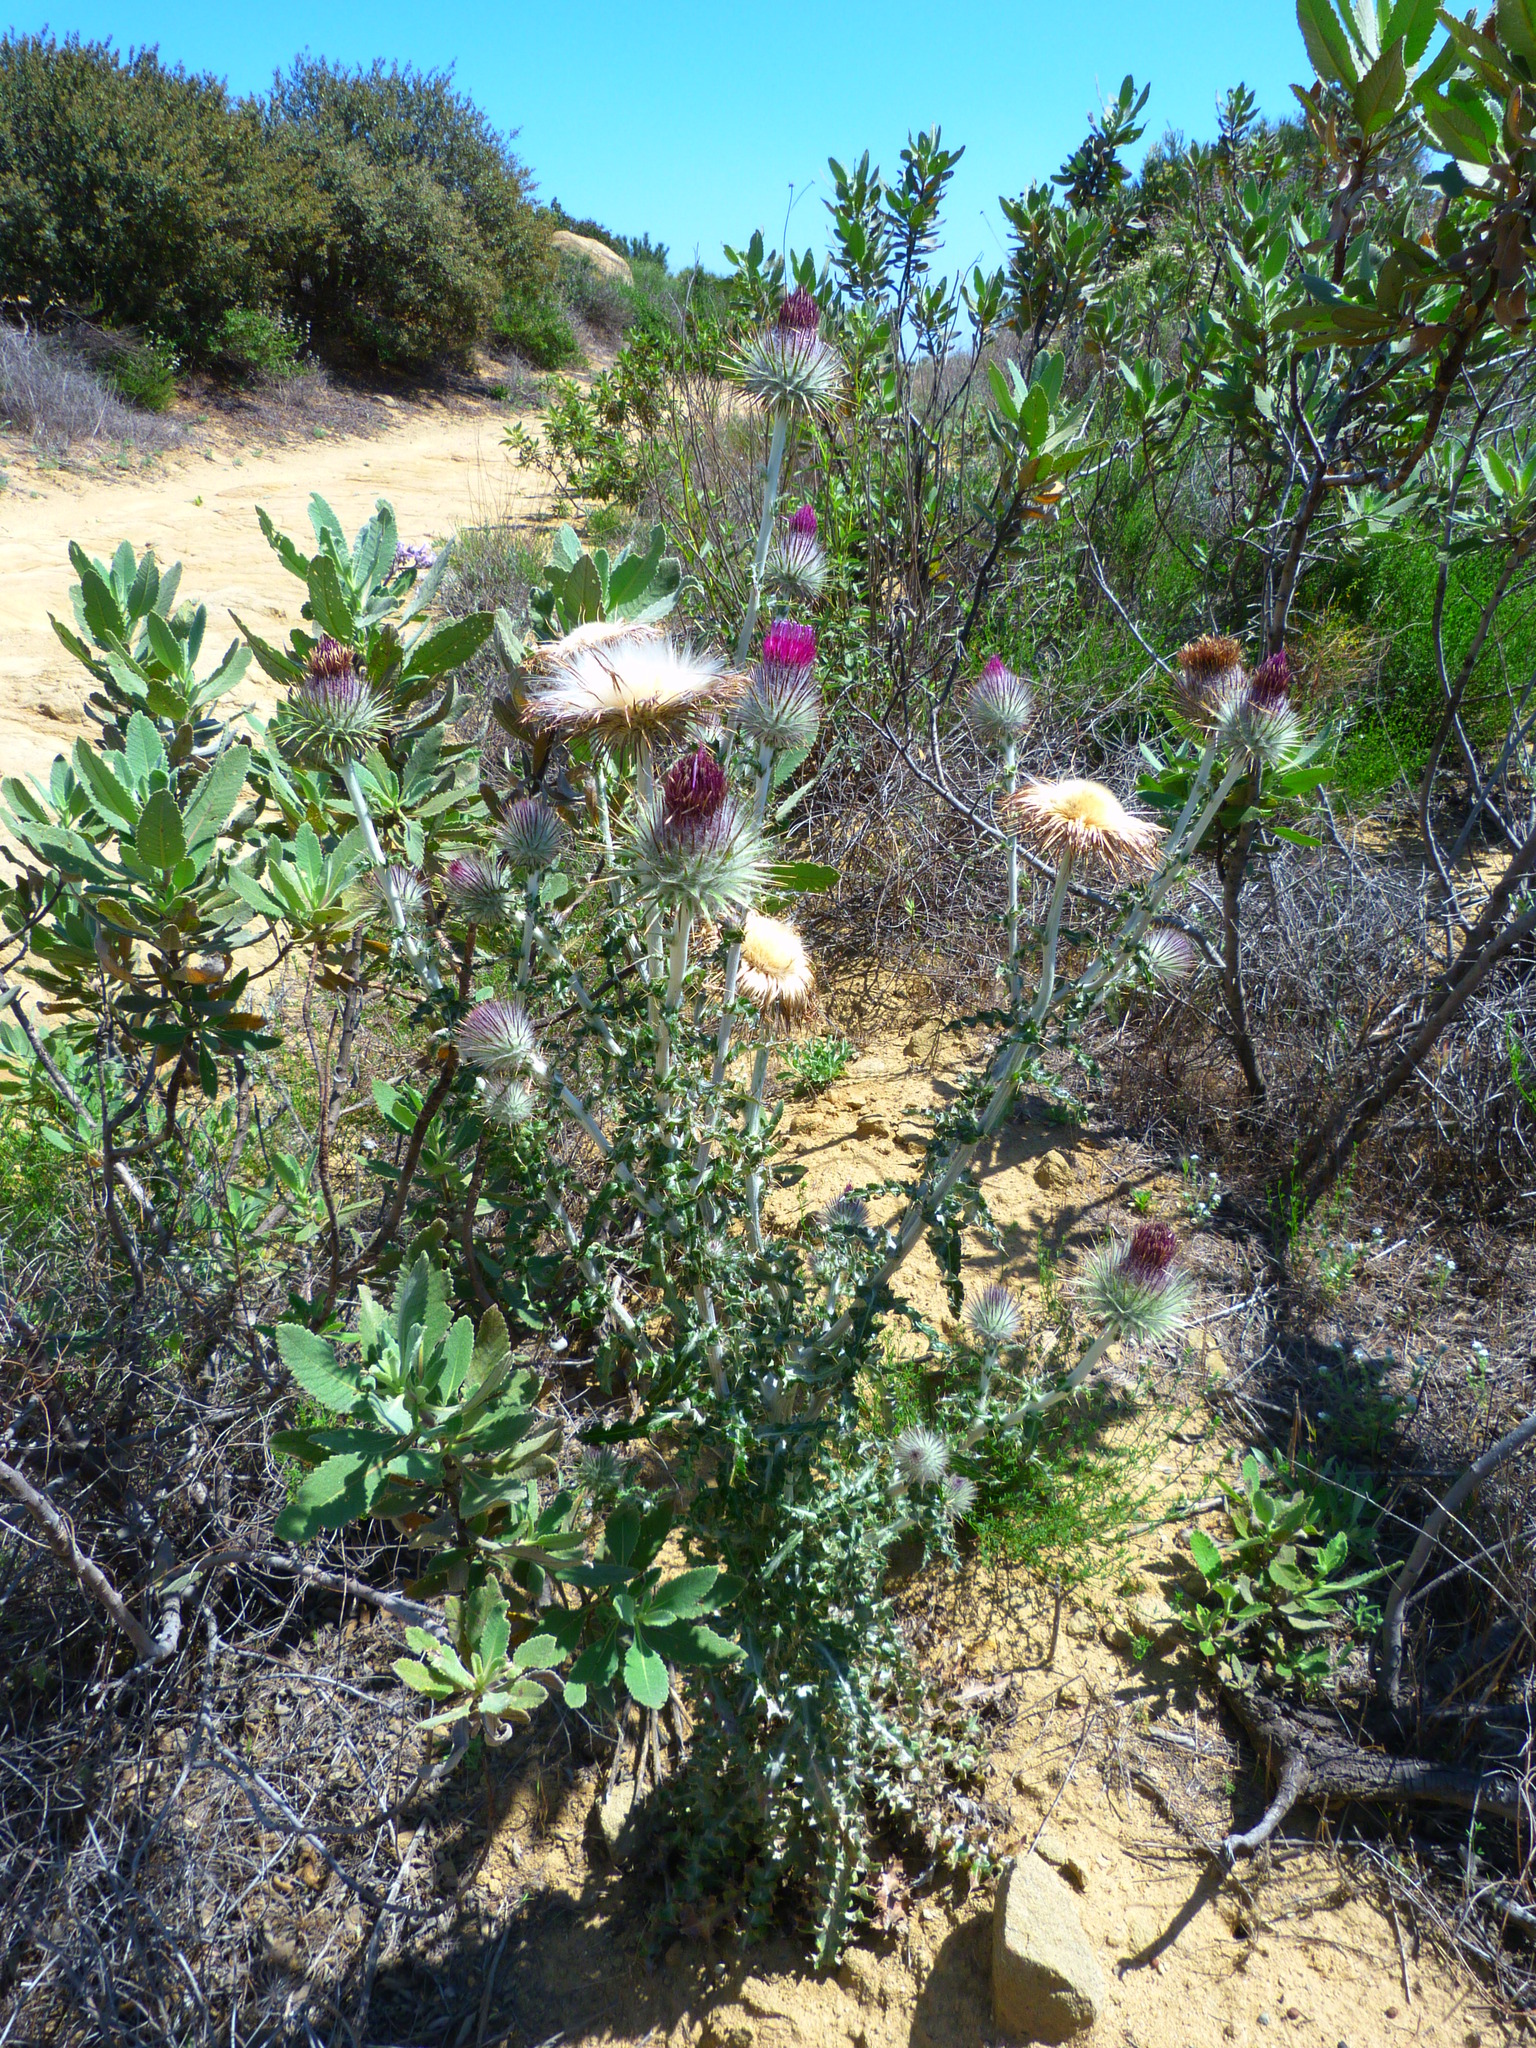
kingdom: Plantae
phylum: Tracheophyta
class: Magnoliopsida
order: Asterales
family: Asteraceae
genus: Cirsium
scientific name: Cirsium occidentale
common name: Western thistle
